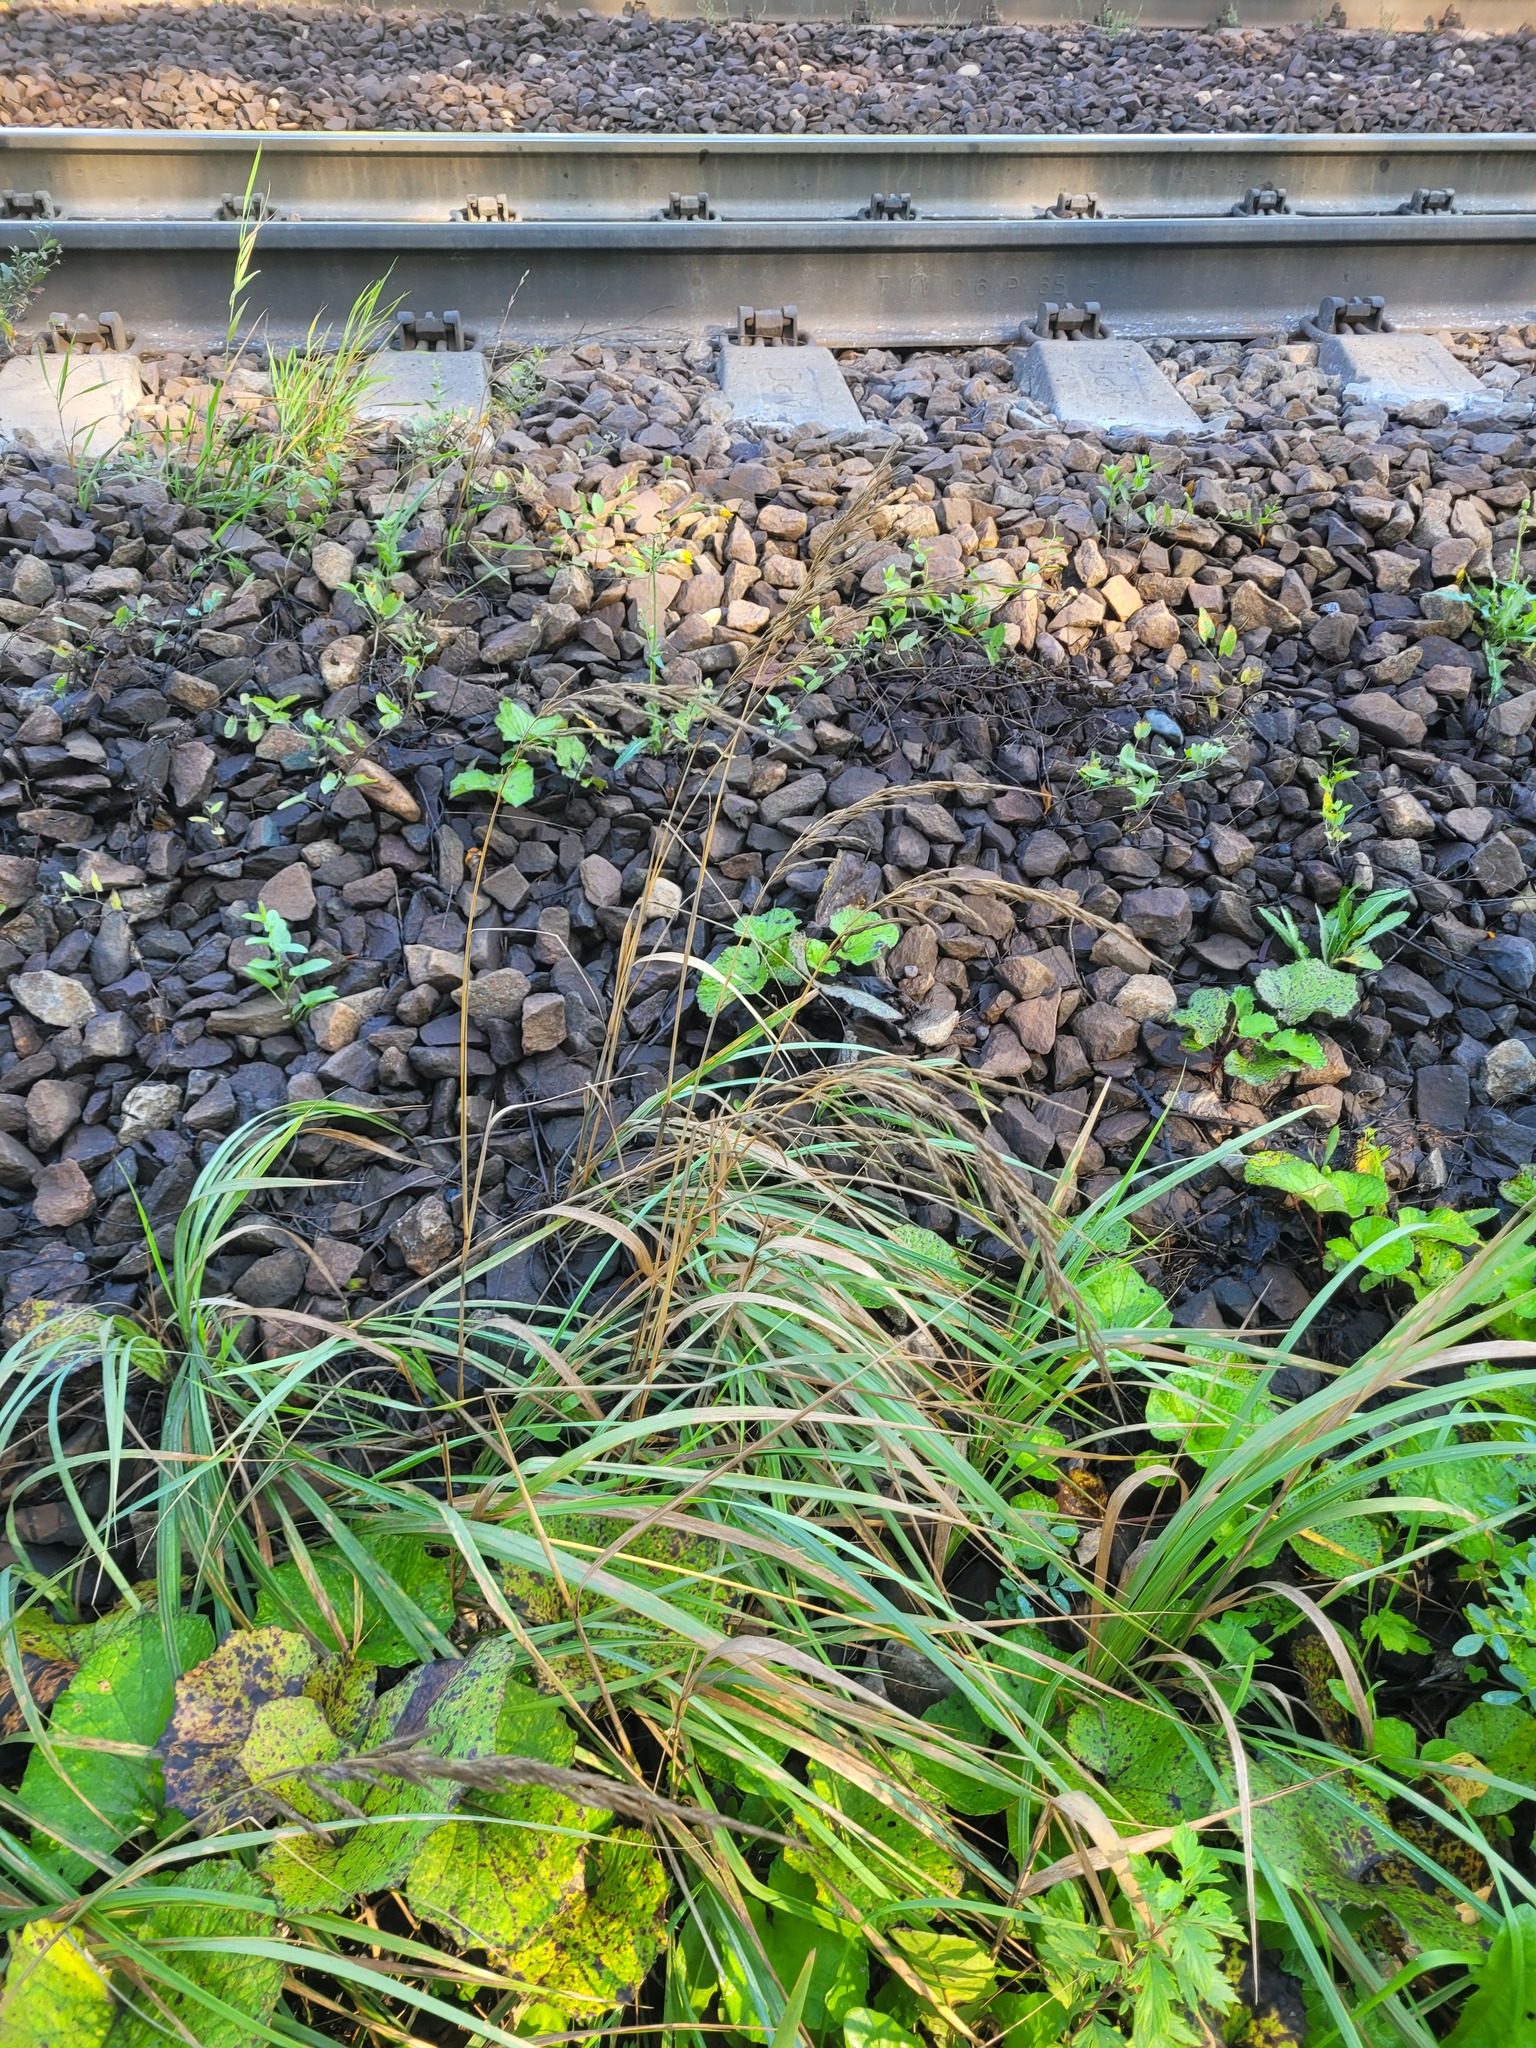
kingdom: Plantae
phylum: Tracheophyta
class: Liliopsida
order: Poales
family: Poaceae
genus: Calamagrostis
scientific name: Calamagrostis epigejos
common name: Wood small-reed
